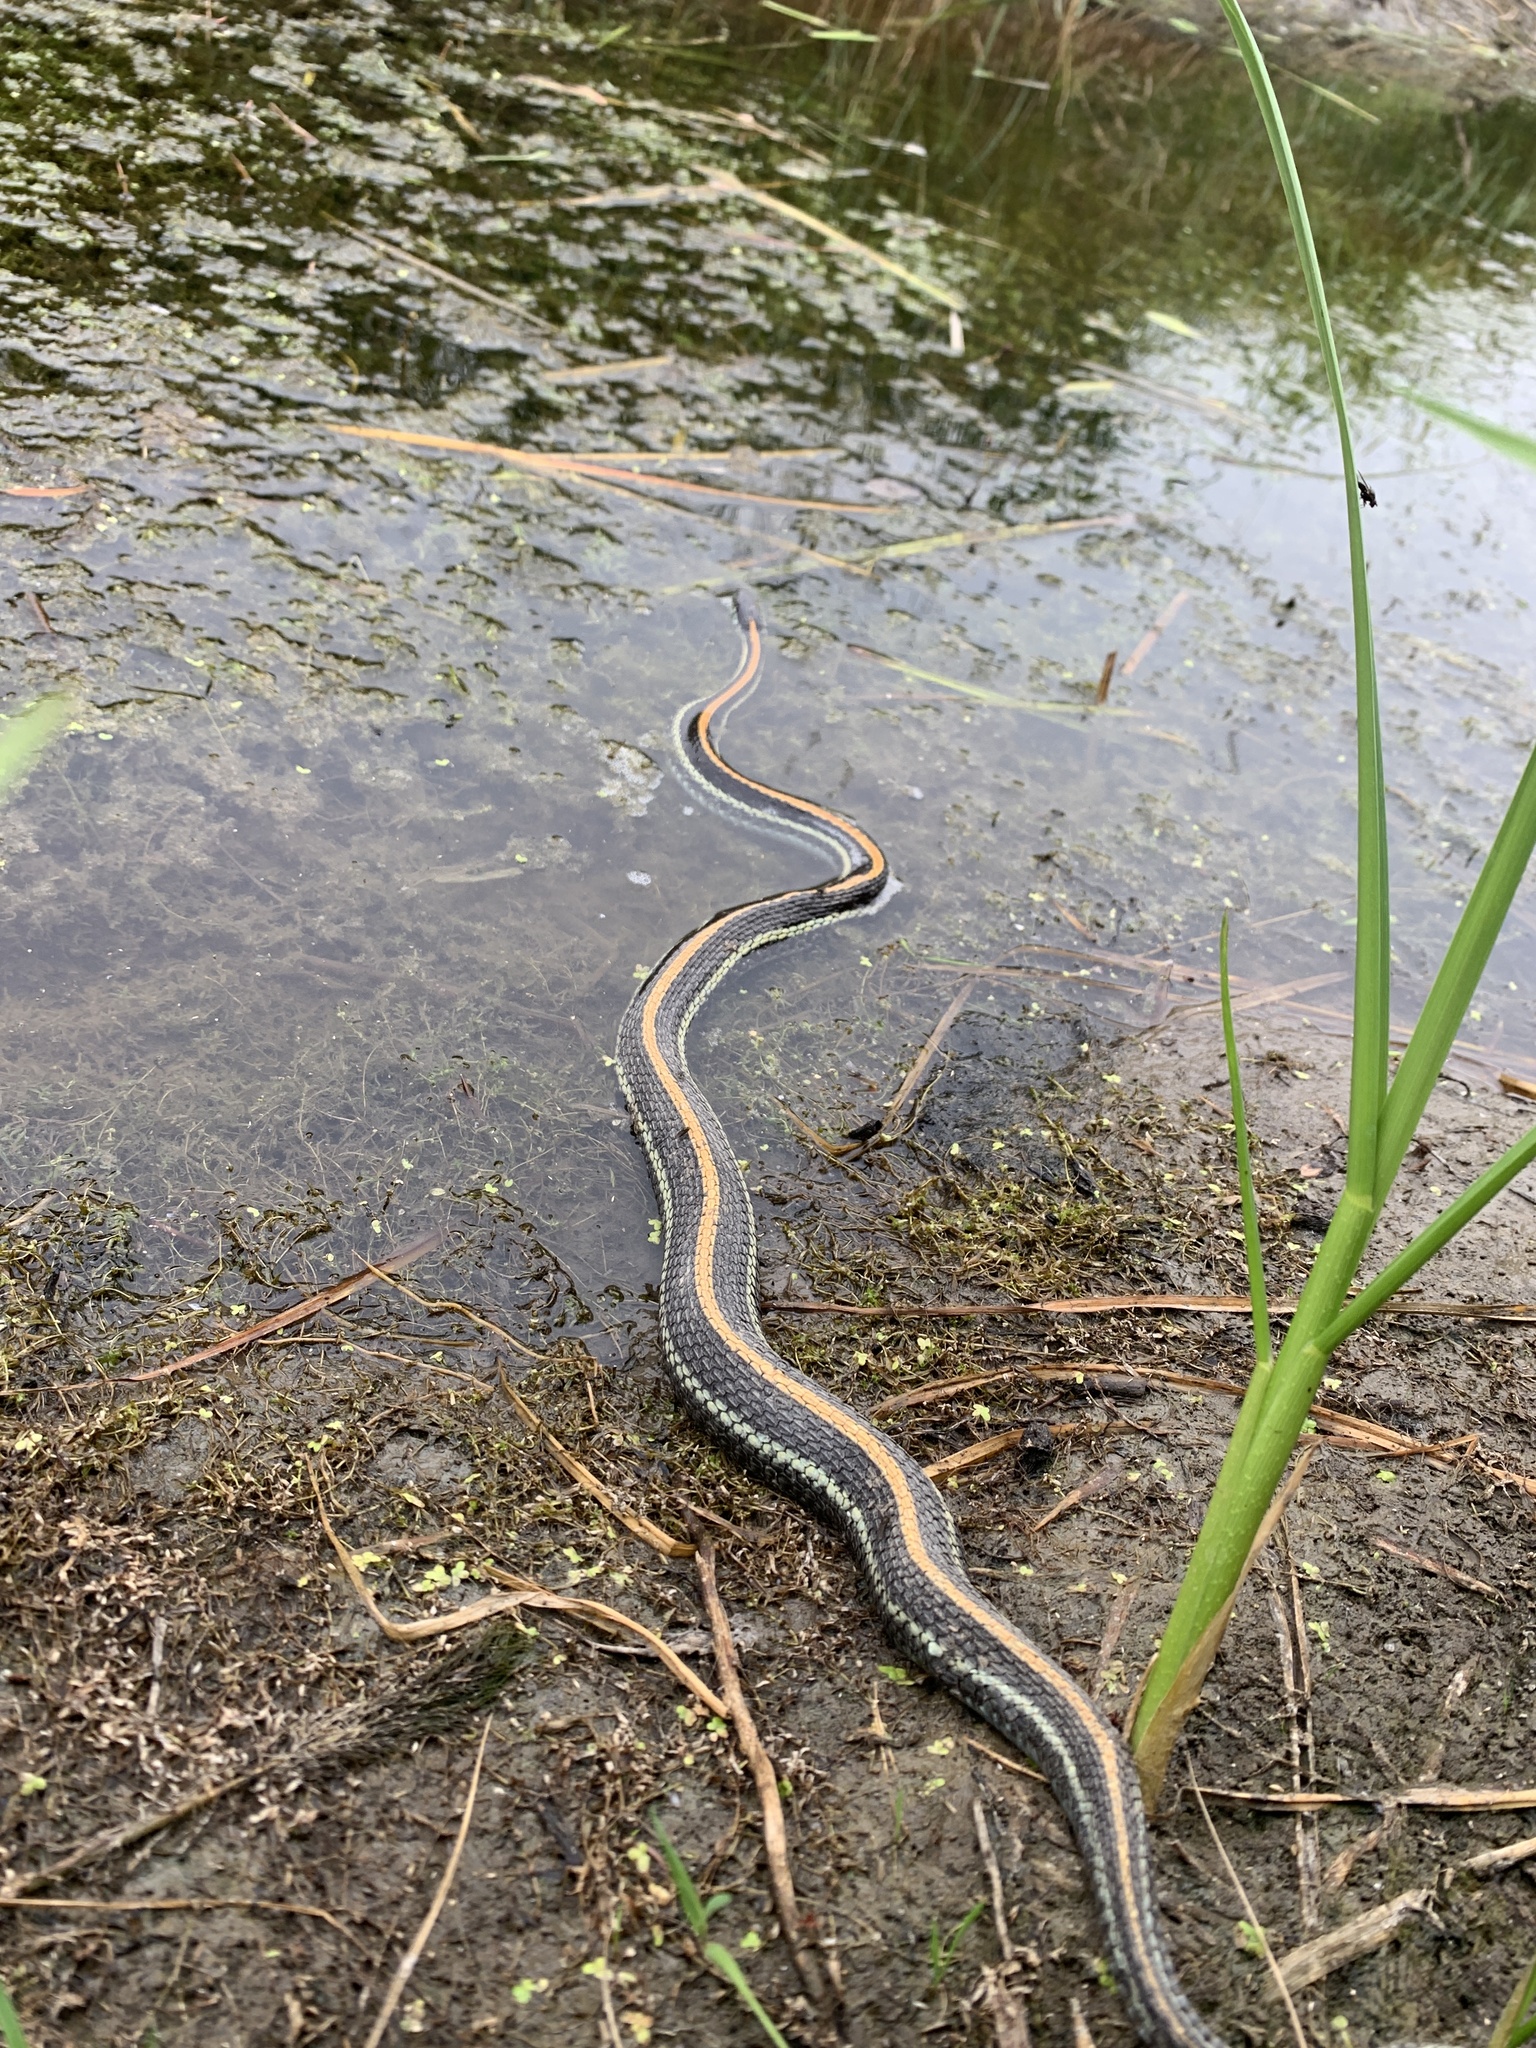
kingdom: Animalia
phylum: Chordata
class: Squamata
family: Colubridae
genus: Thamnophis
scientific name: Thamnophis radix
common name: Plains garter snake
